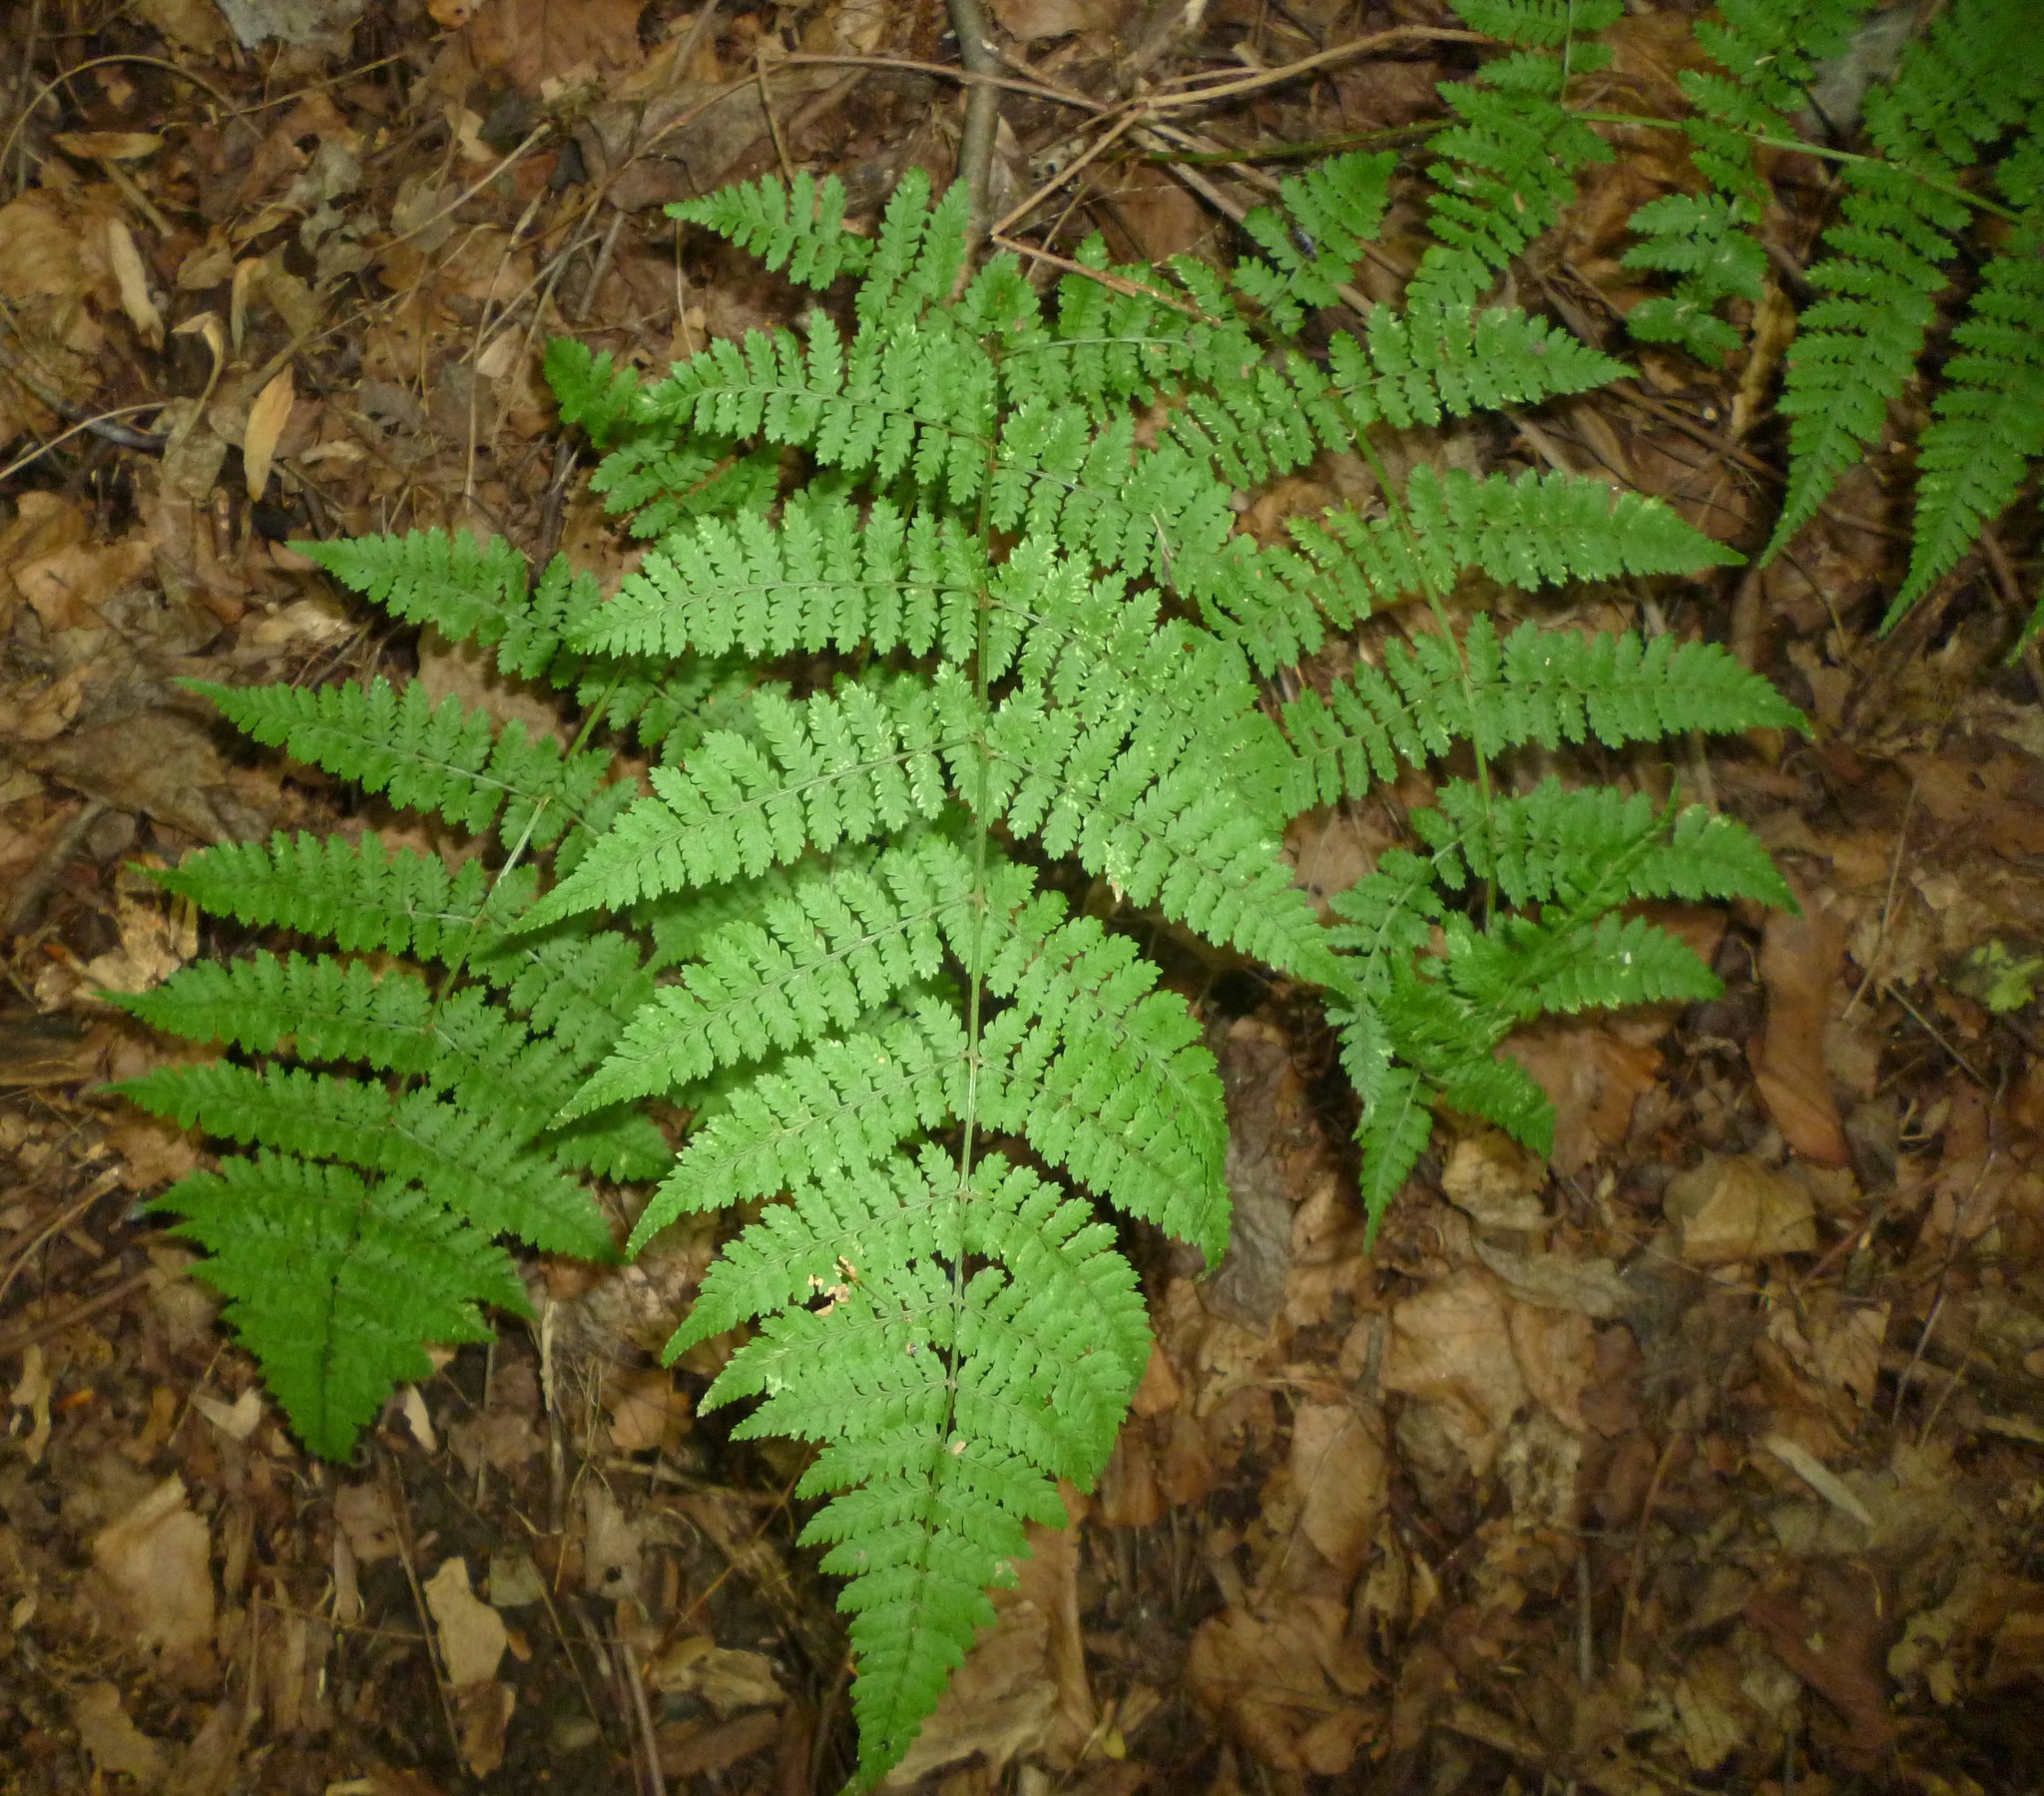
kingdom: Plantae
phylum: Tracheophyta
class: Polypodiopsida
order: Polypodiales
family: Dryopteridaceae
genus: Dryopteris
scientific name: Dryopteris intermedia
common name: Evergreen wood fern
